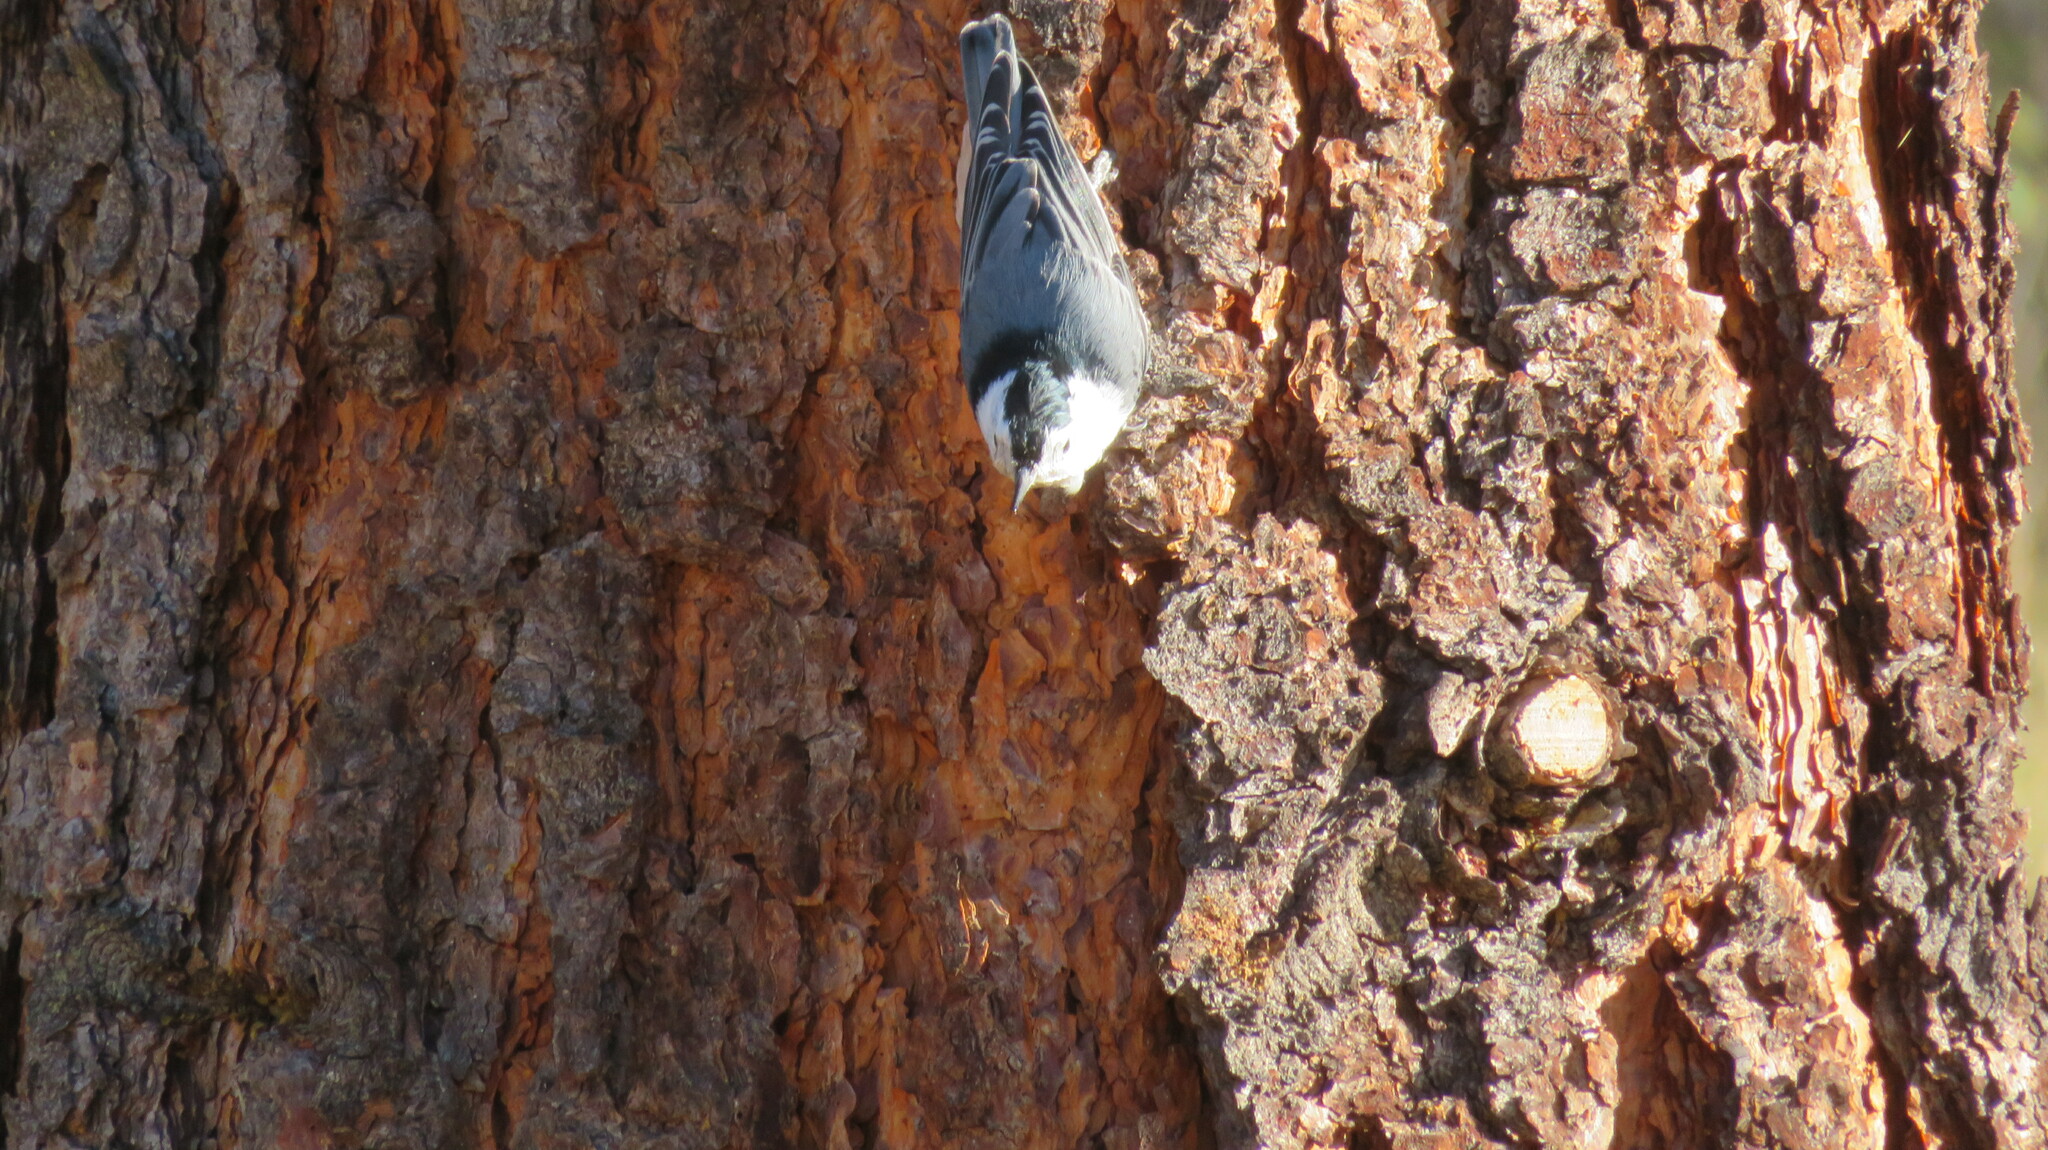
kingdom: Animalia
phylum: Chordata
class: Aves
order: Passeriformes
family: Sittidae
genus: Sitta
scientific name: Sitta carolinensis
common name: White-breasted nuthatch
